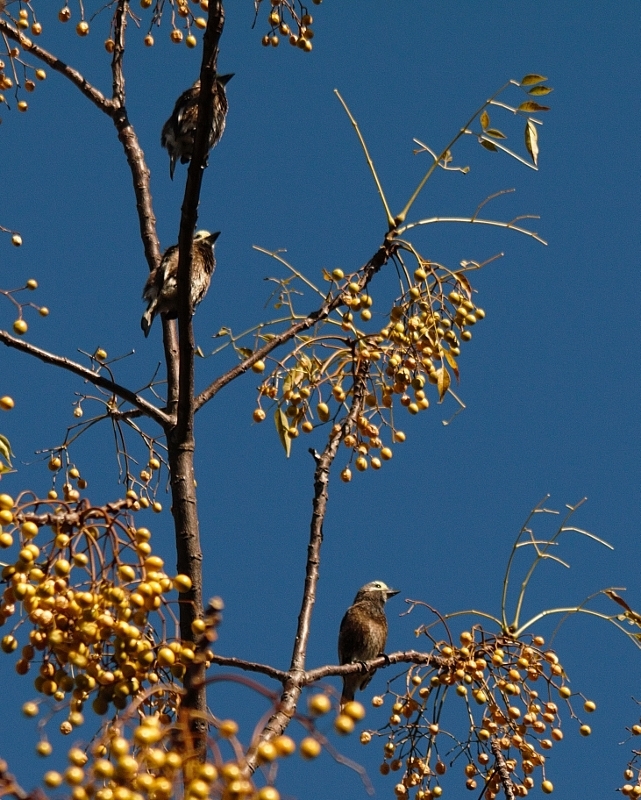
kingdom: Animalia
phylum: Chordata
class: Aves
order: Piciformes
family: Lybiidae
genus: Stactolaema
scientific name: Stactolaema whytii
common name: Whyte's barbet
